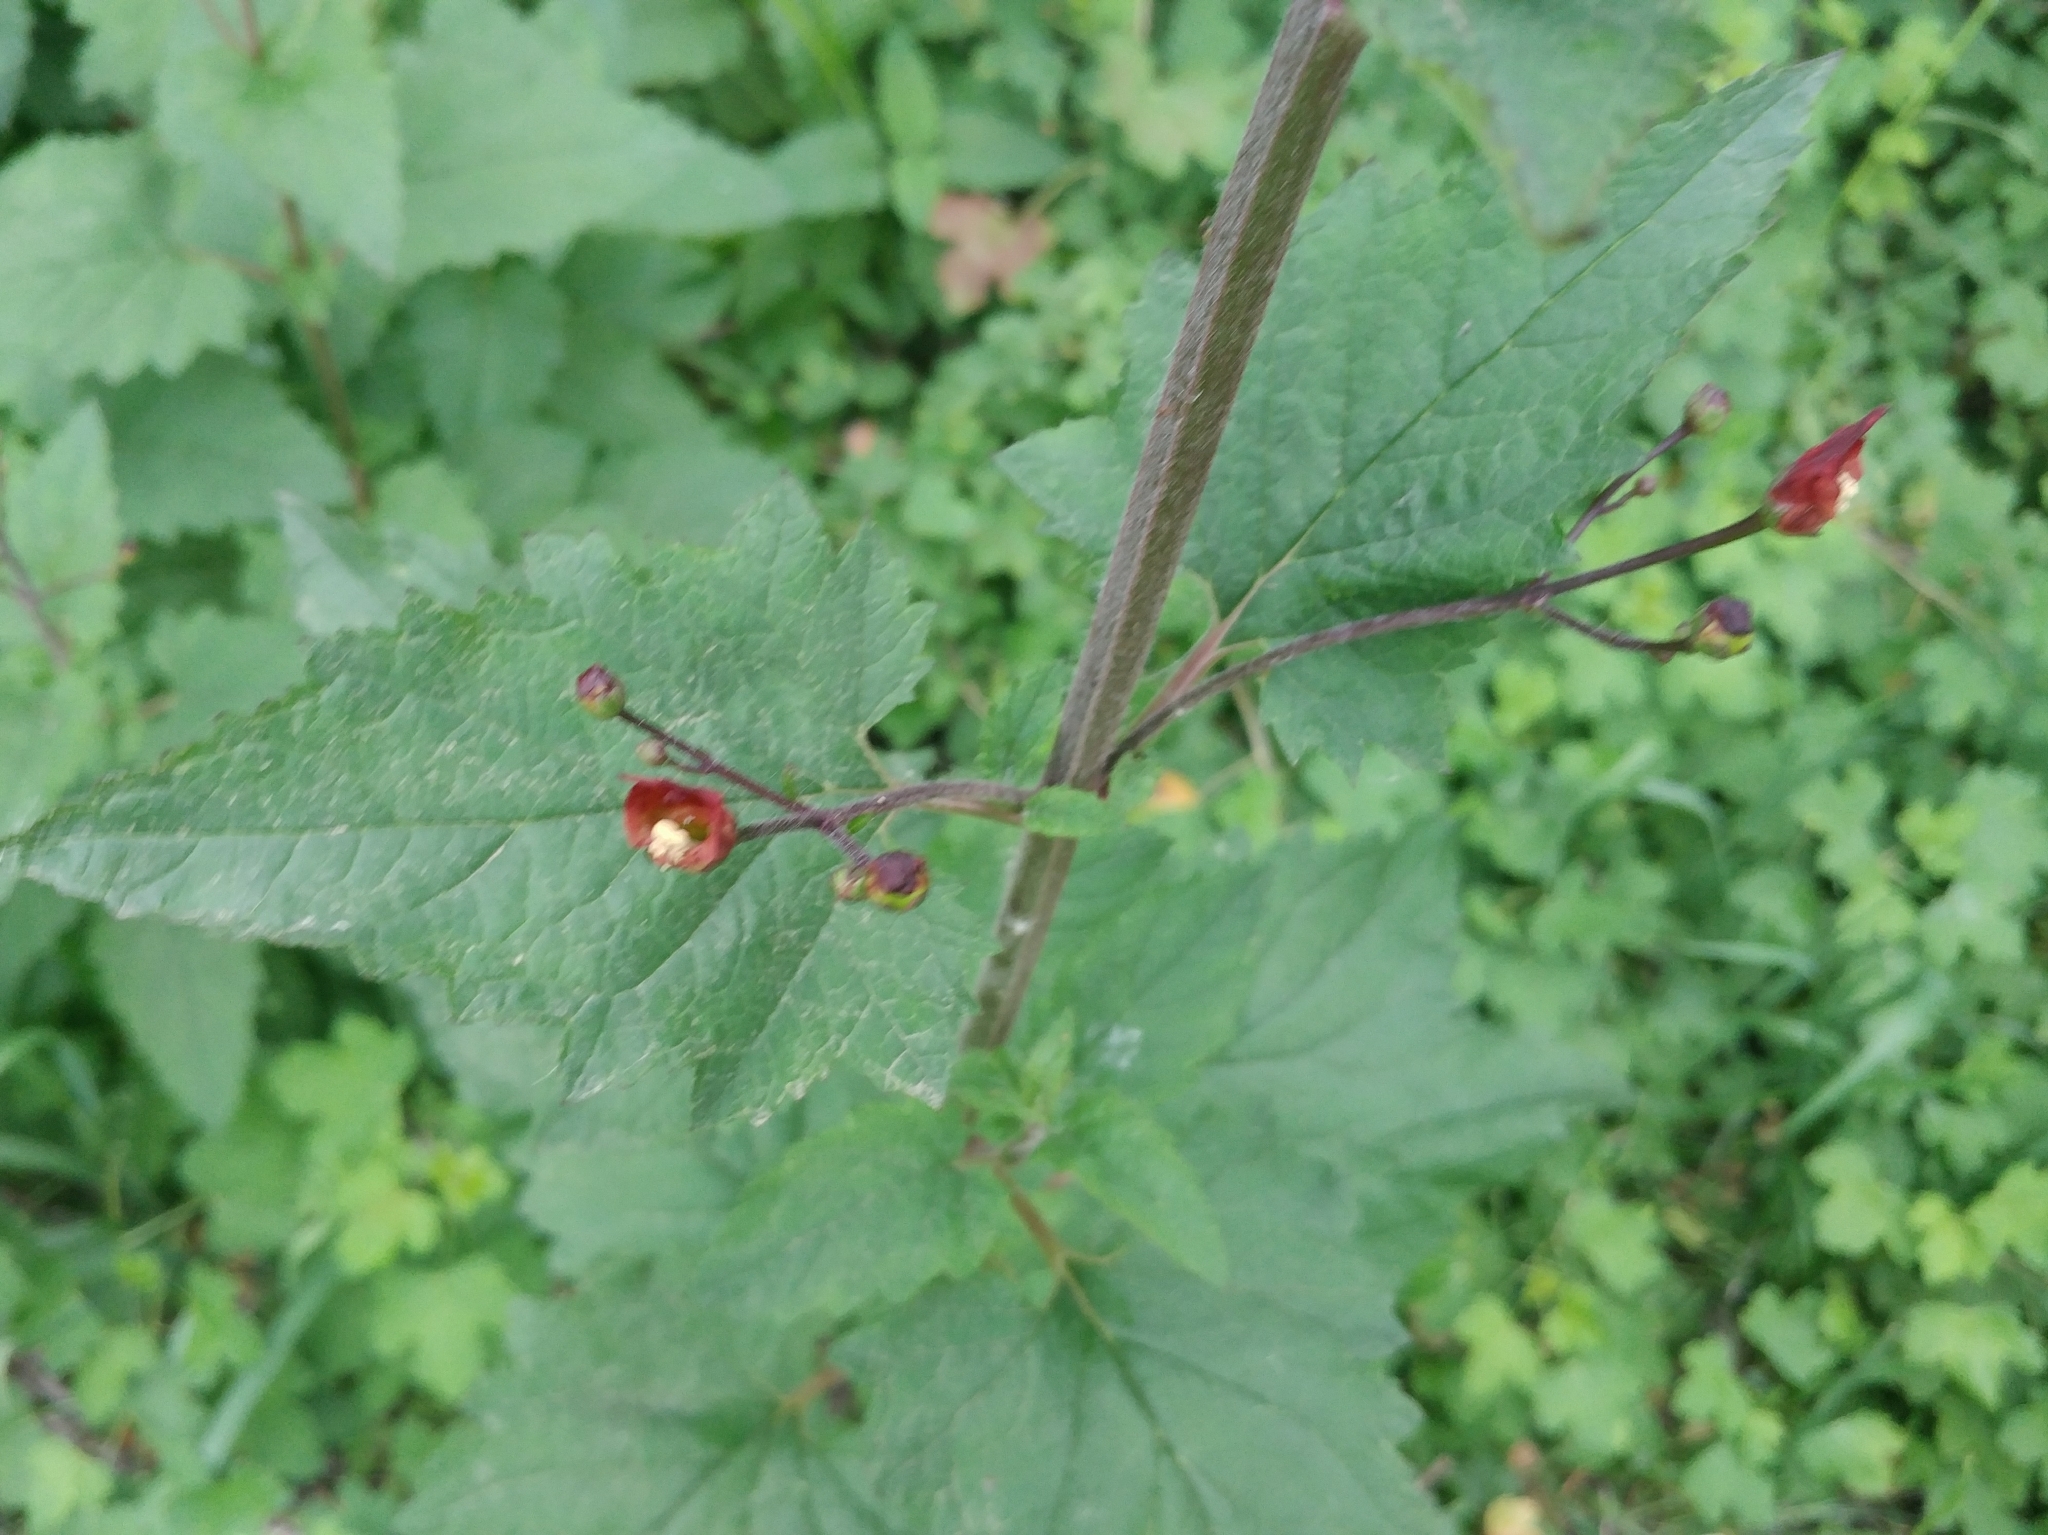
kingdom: Plantae
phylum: Tracheophyta
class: Magnoliopsida
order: Lamiales
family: Scrophulariaceae
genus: Scrophularia
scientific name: Scrophularia californica
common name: California figwort
